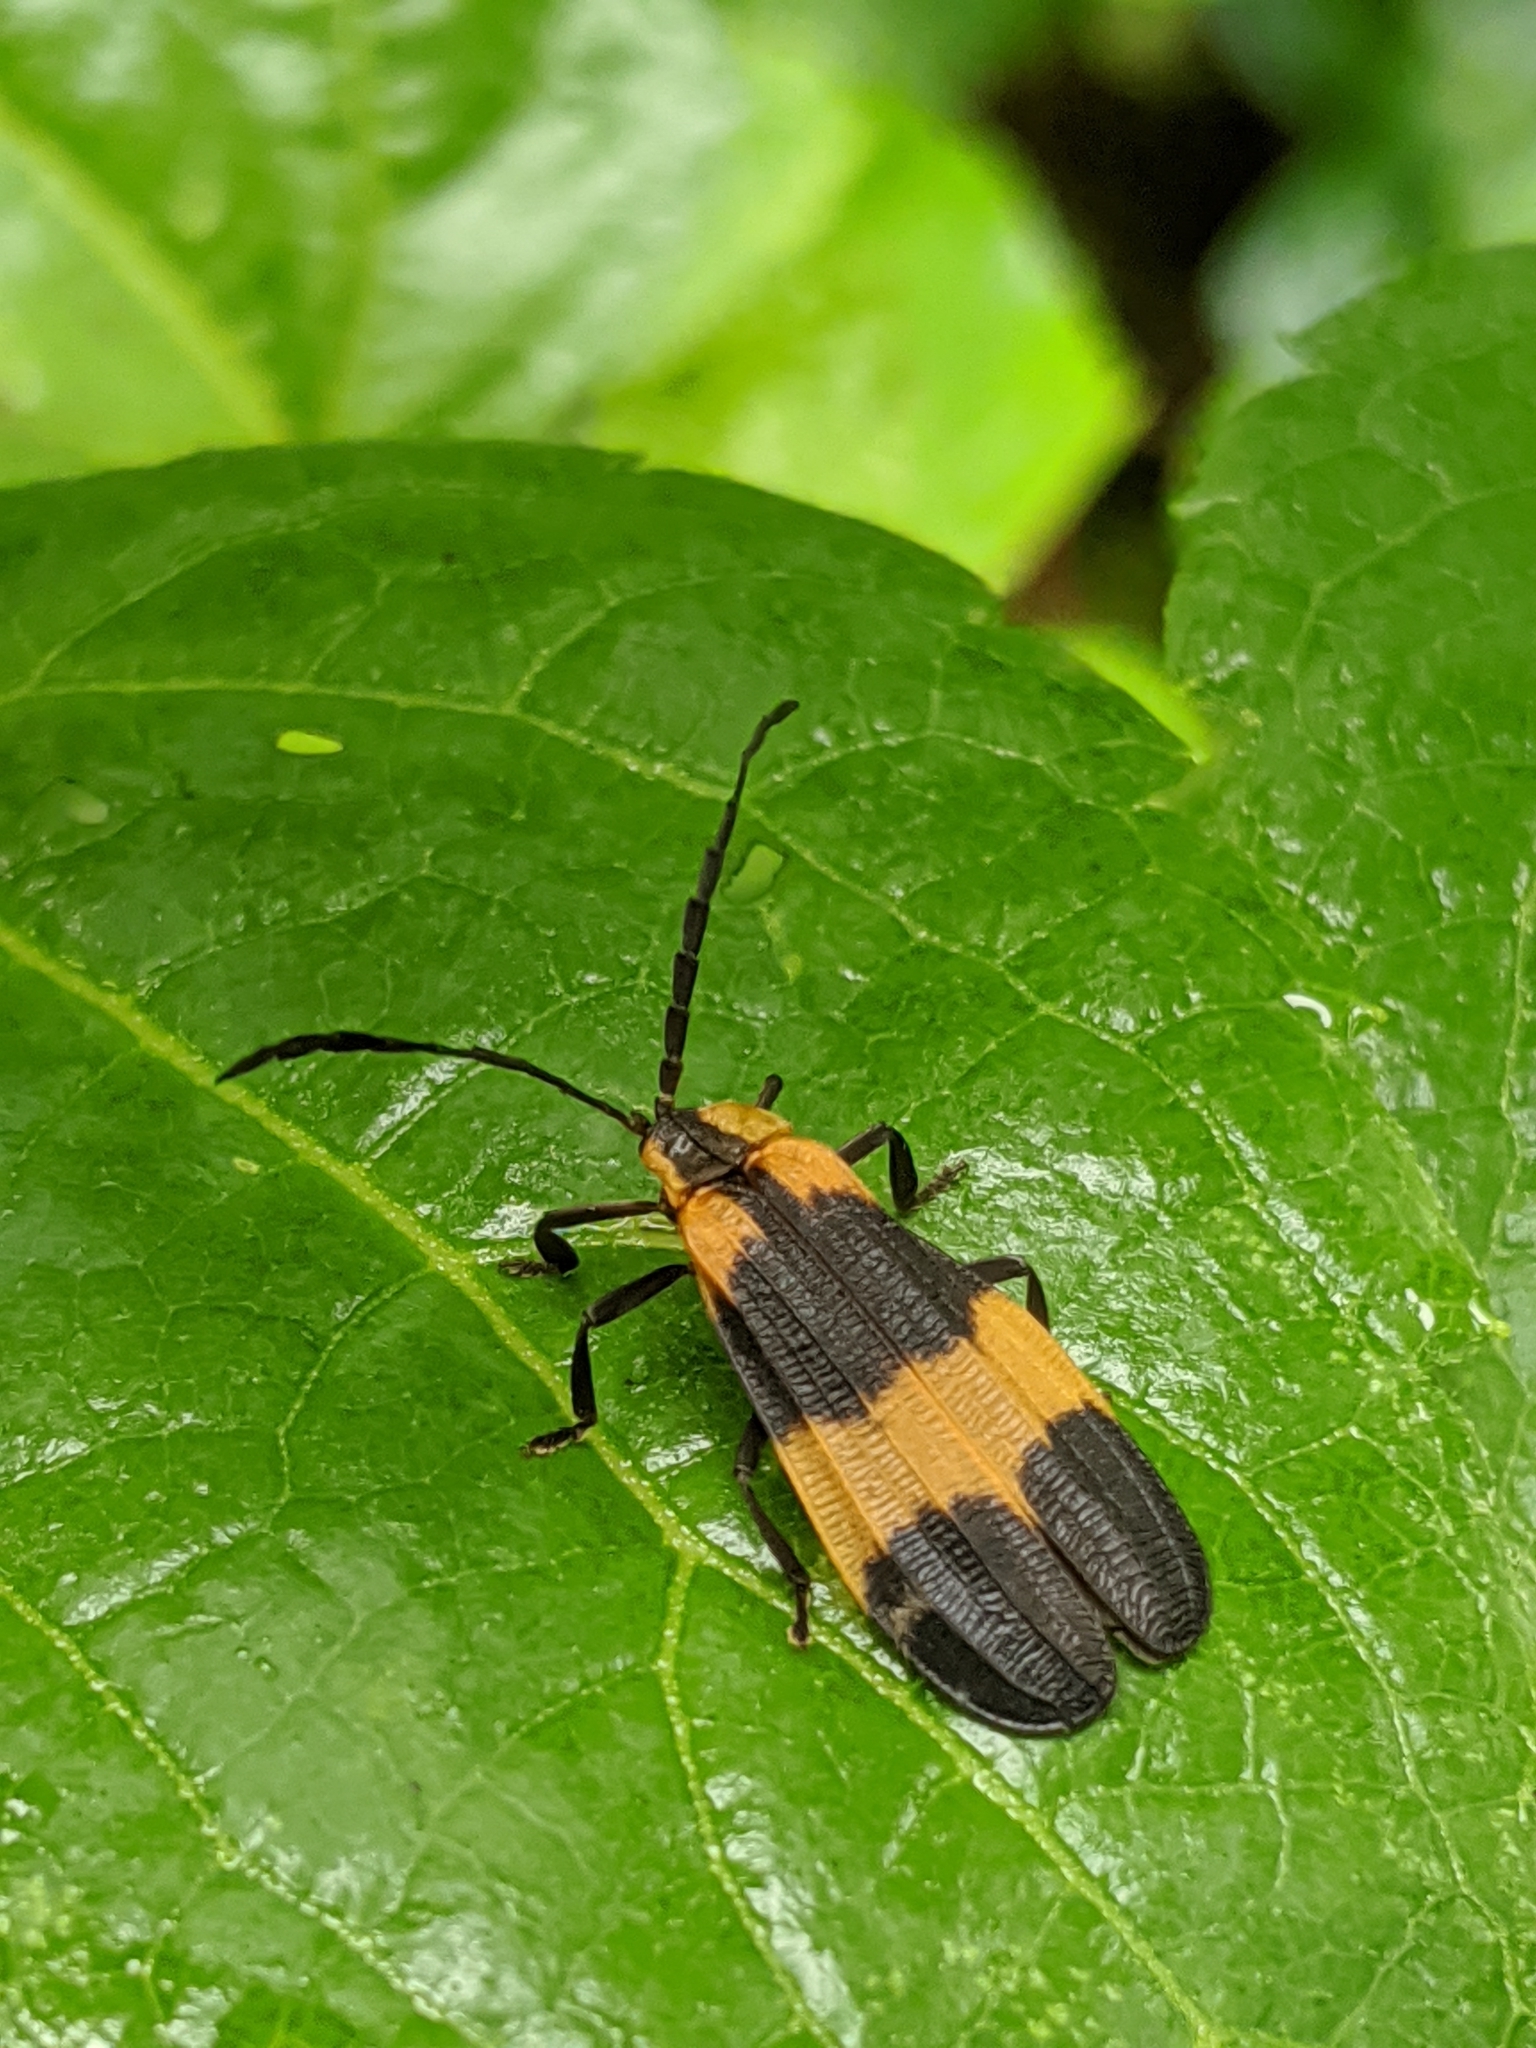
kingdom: Animalia
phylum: Arthropoda
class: Insecta
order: Coleoptera
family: Lycidae
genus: Calopteron
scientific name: Calopteron reticulatum
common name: Banded net-winged beetle
